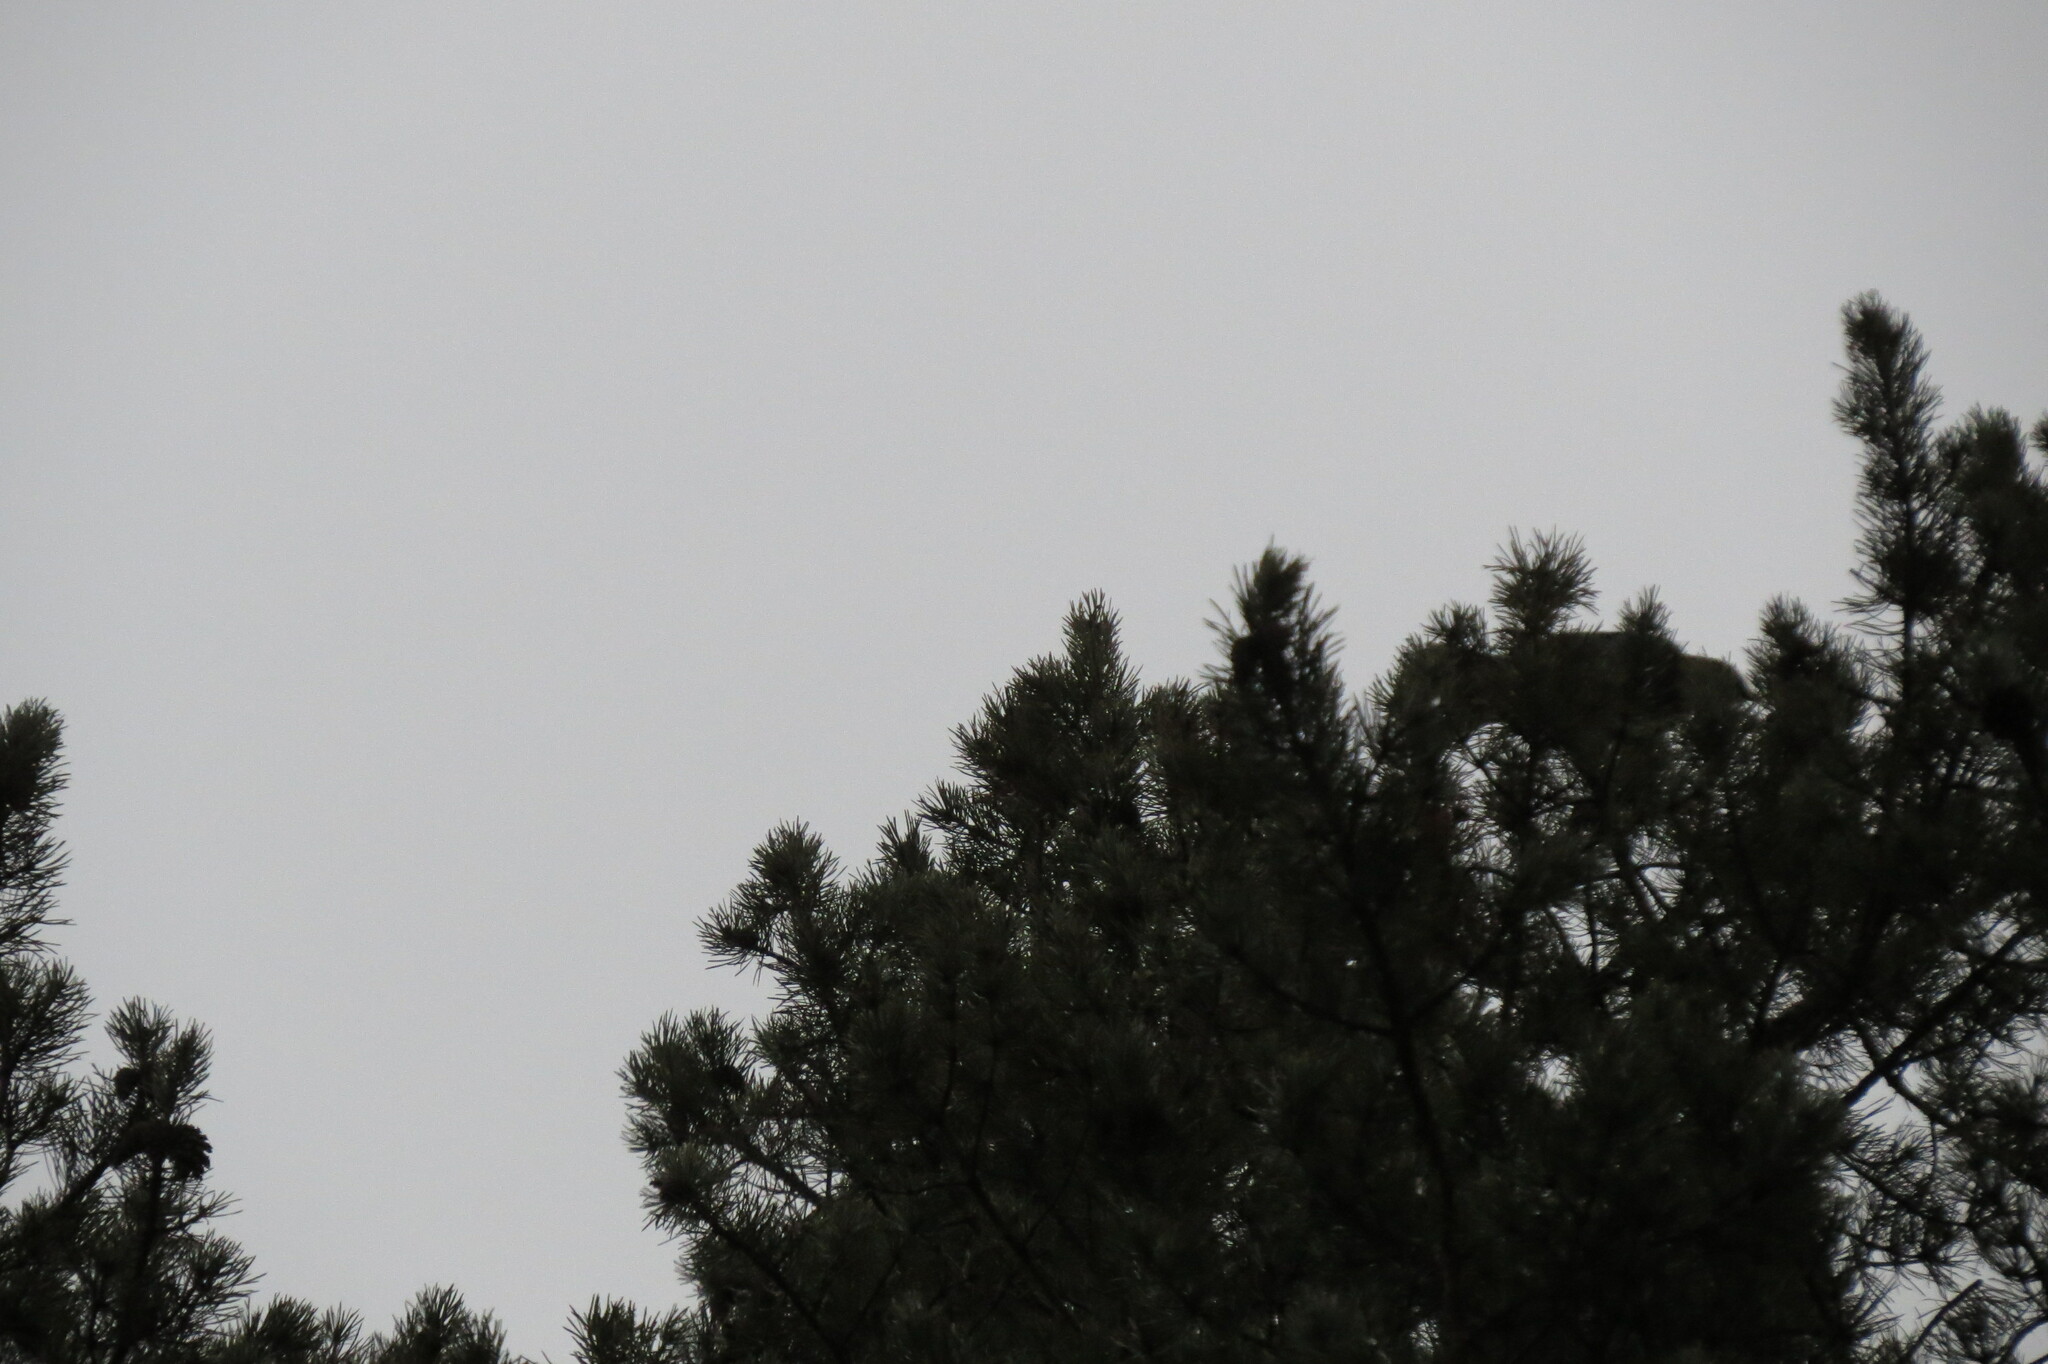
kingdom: Animalia
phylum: Chordata
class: Aves
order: Passeriformes
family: Corvidae
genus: Garrulus
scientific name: Garrulus glandarius
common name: Eurasian jay
